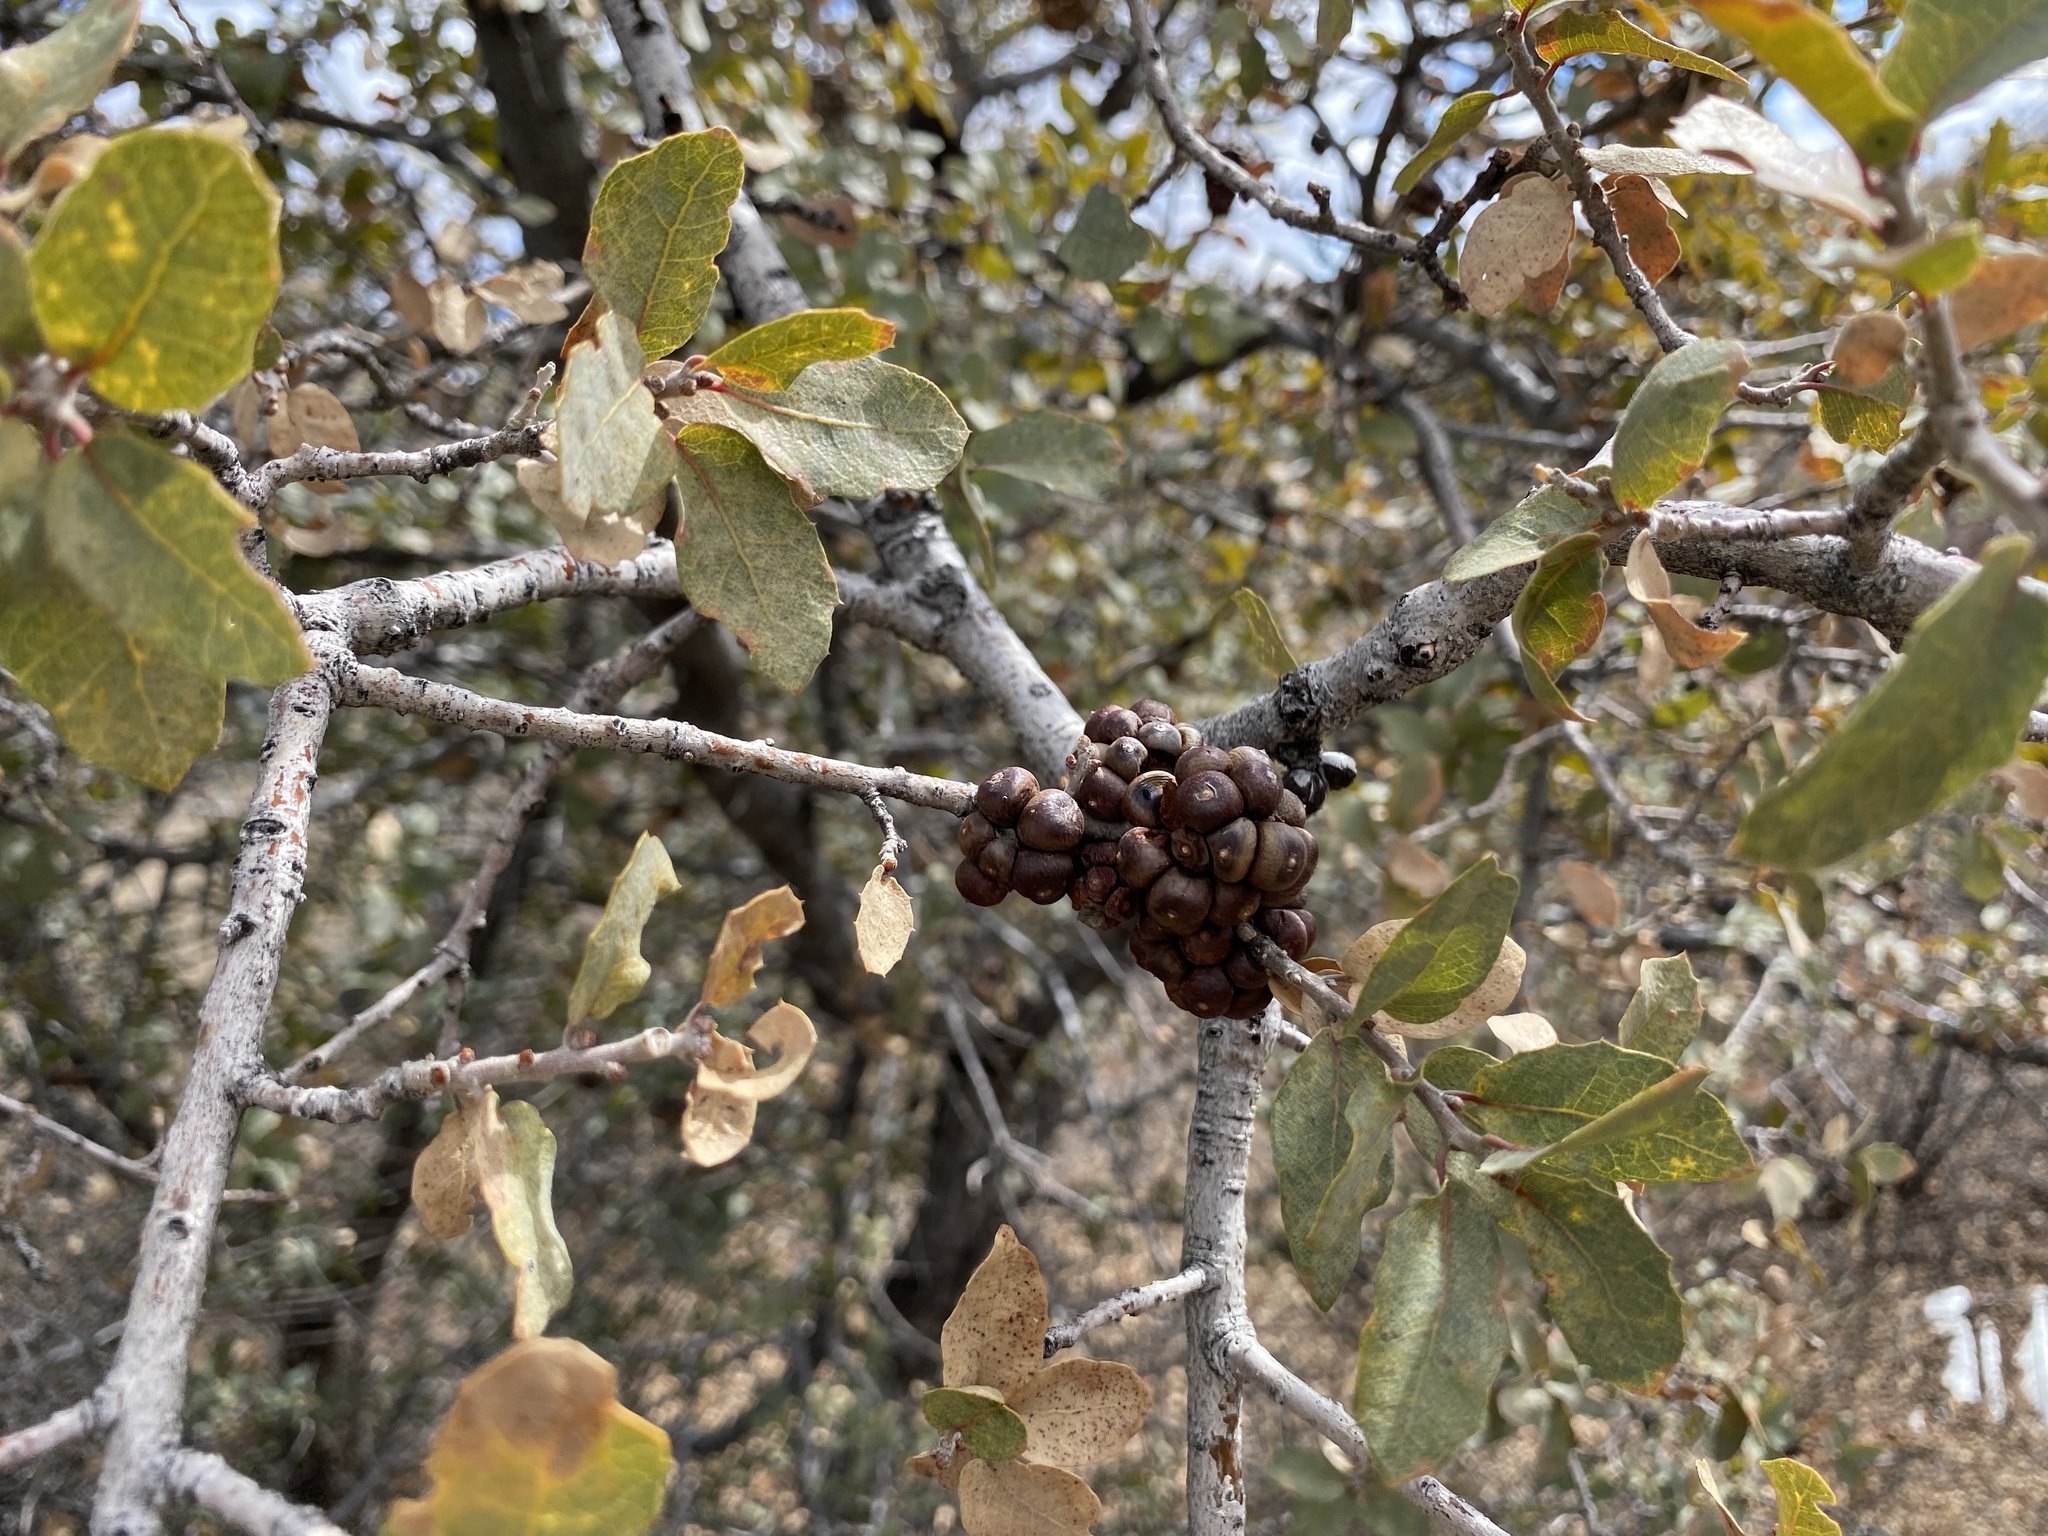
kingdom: Animalia
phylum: Arthropoda
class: Insecta
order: Hymenoptera
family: Cynipidae
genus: Andricus
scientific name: Andricus
